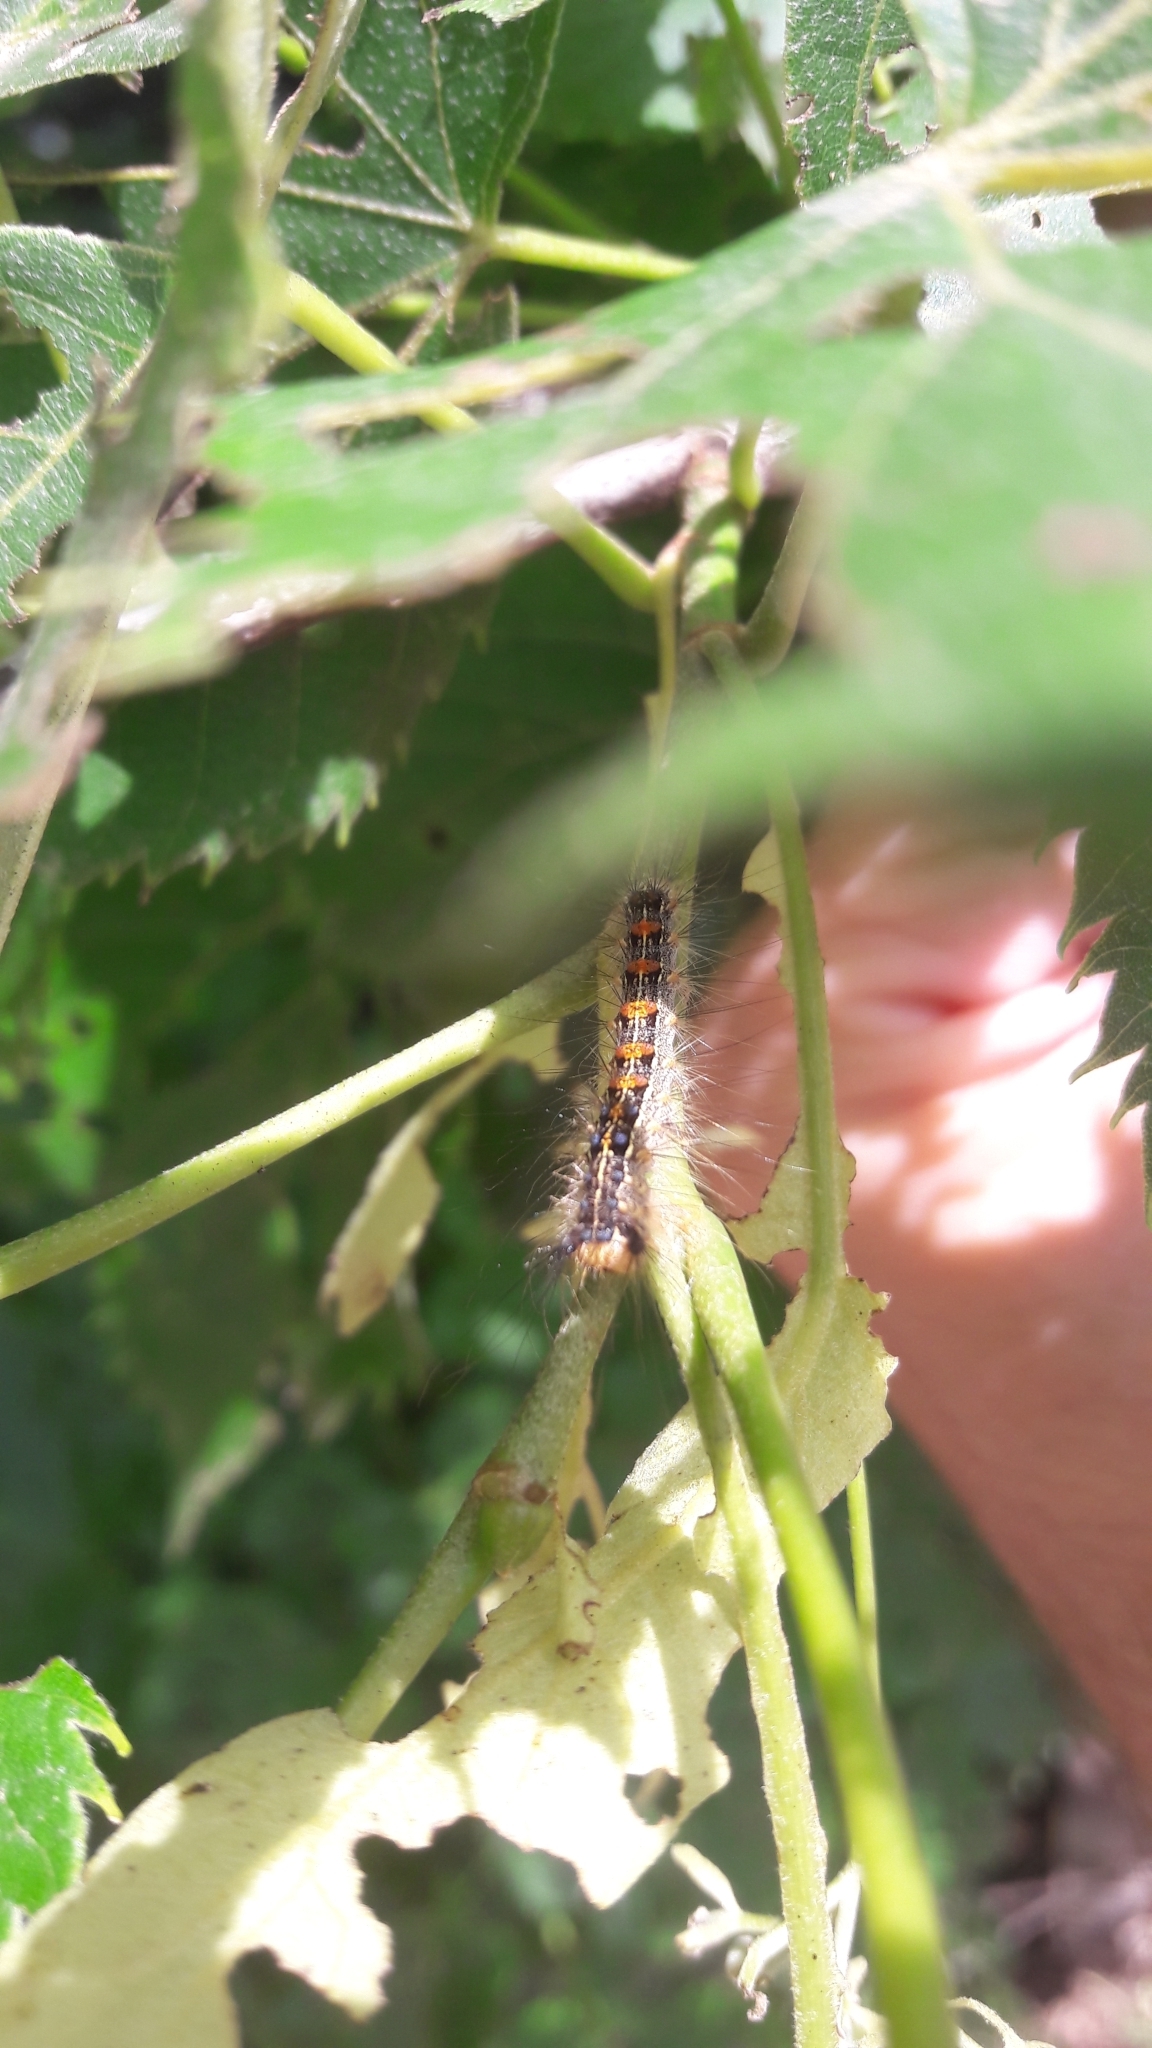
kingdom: Animalia
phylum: Arthropoda
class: Insecta
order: Lepidoptera
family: Erebidae
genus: Lymantria
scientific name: Lymantria dispar
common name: Gypsy moth
